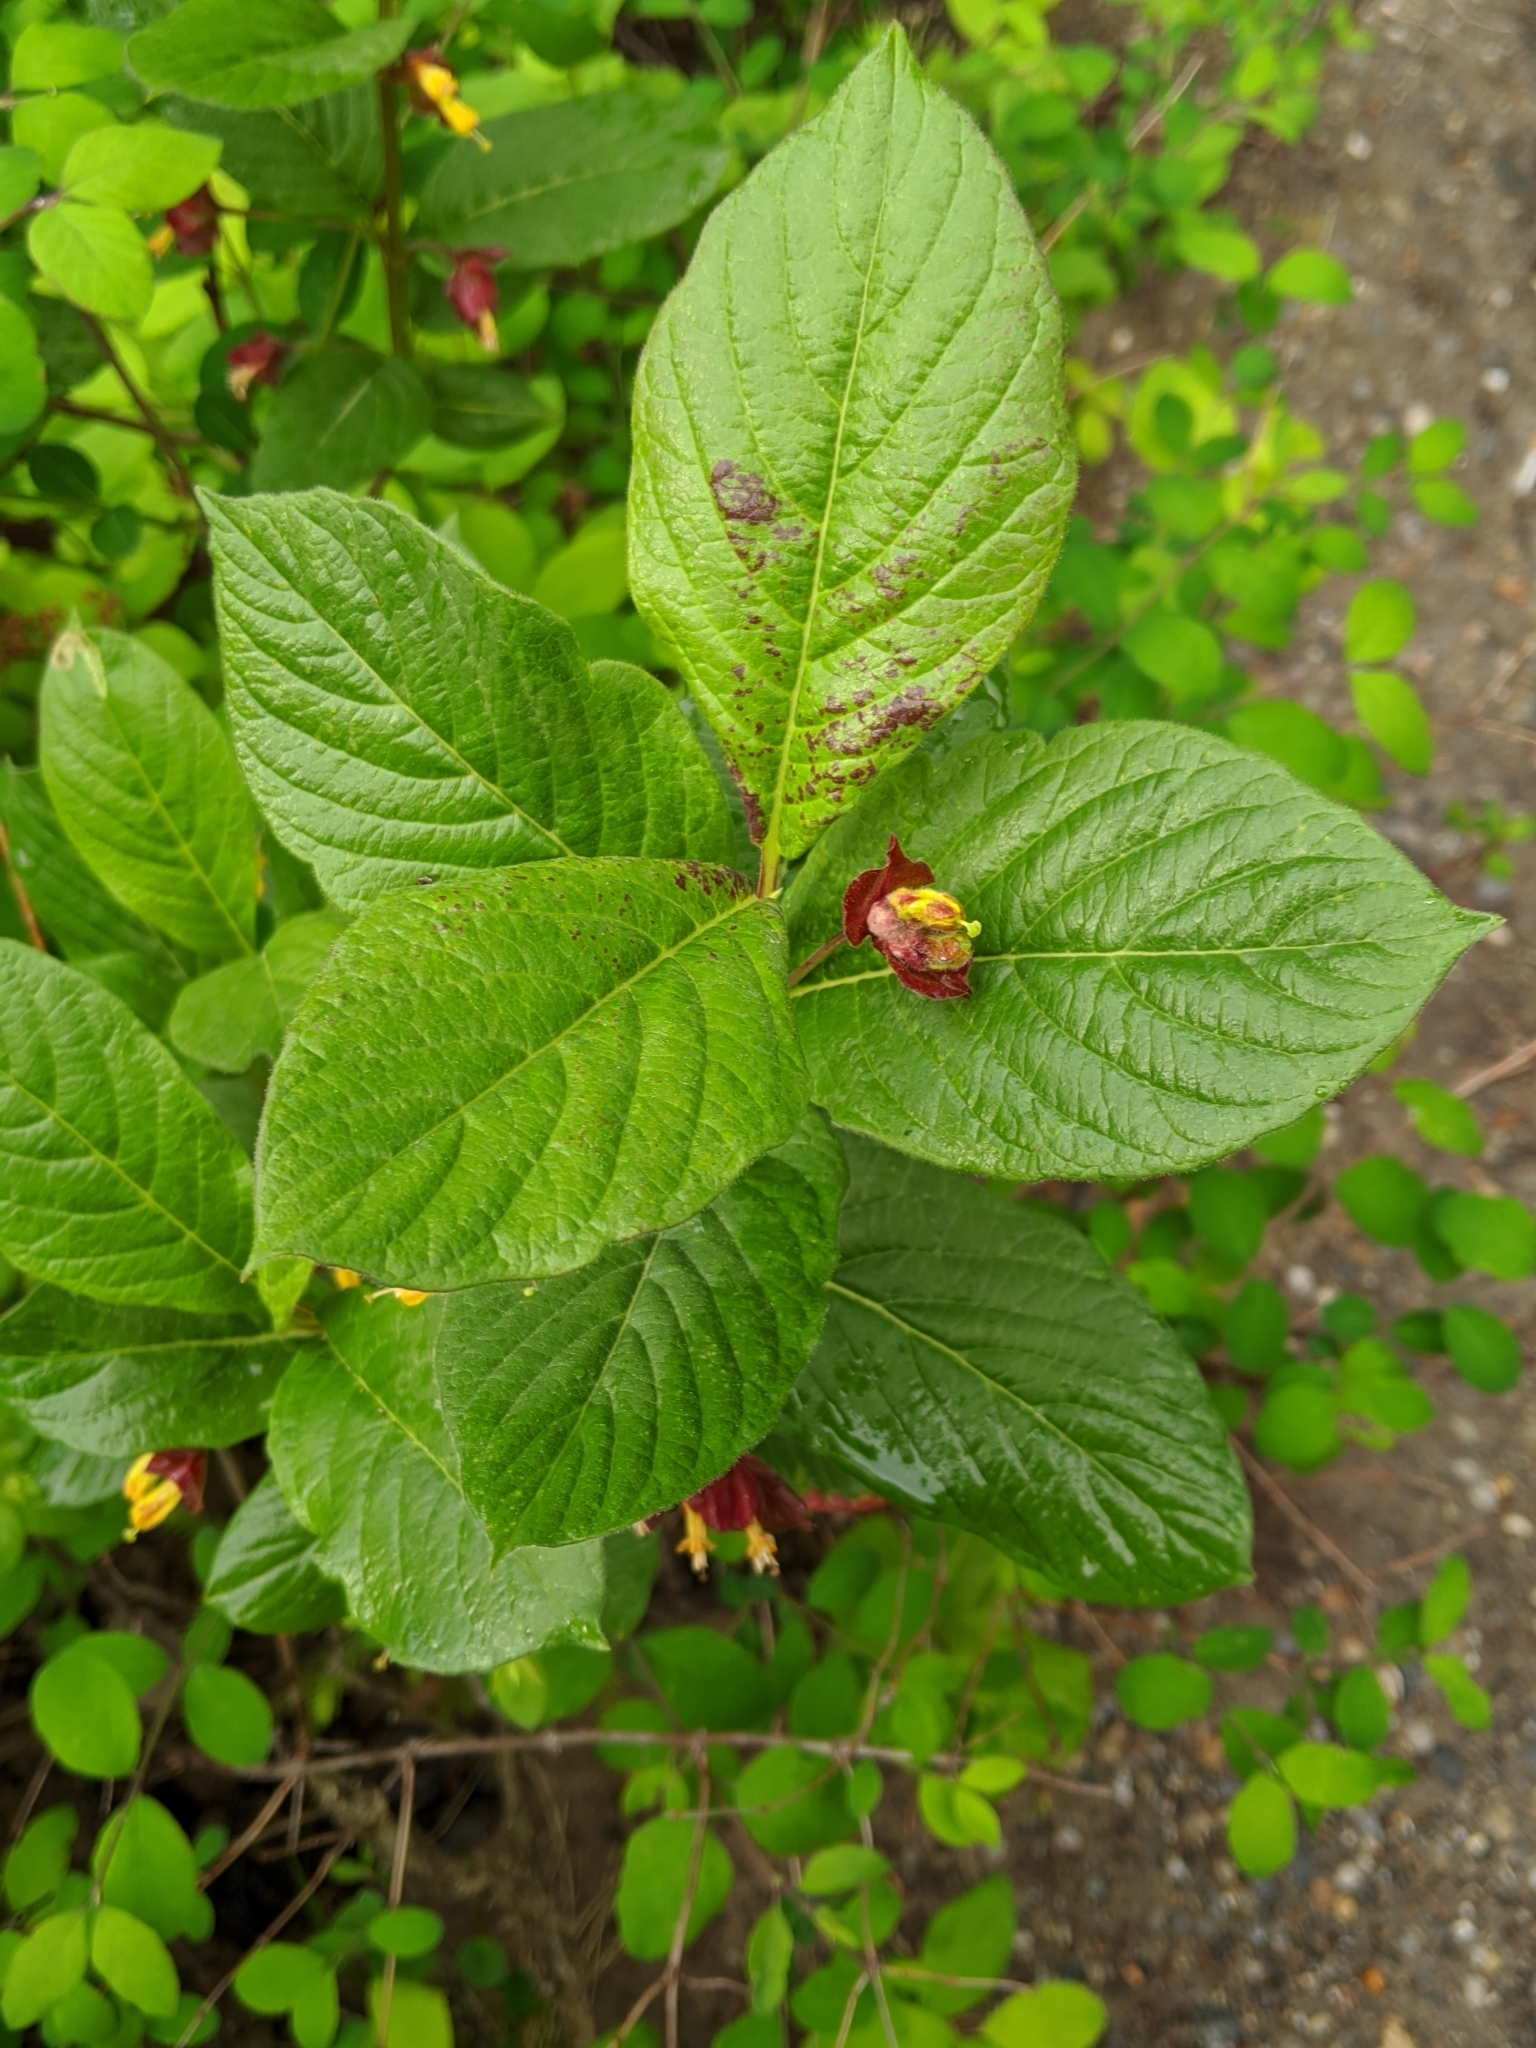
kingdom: Plantae
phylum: Tracheophyta
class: Magnoliopsida
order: Dipsacales
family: Caprifoliaceae
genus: Lonicera
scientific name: Lonicera involucrata
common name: Californian honeysuckle
